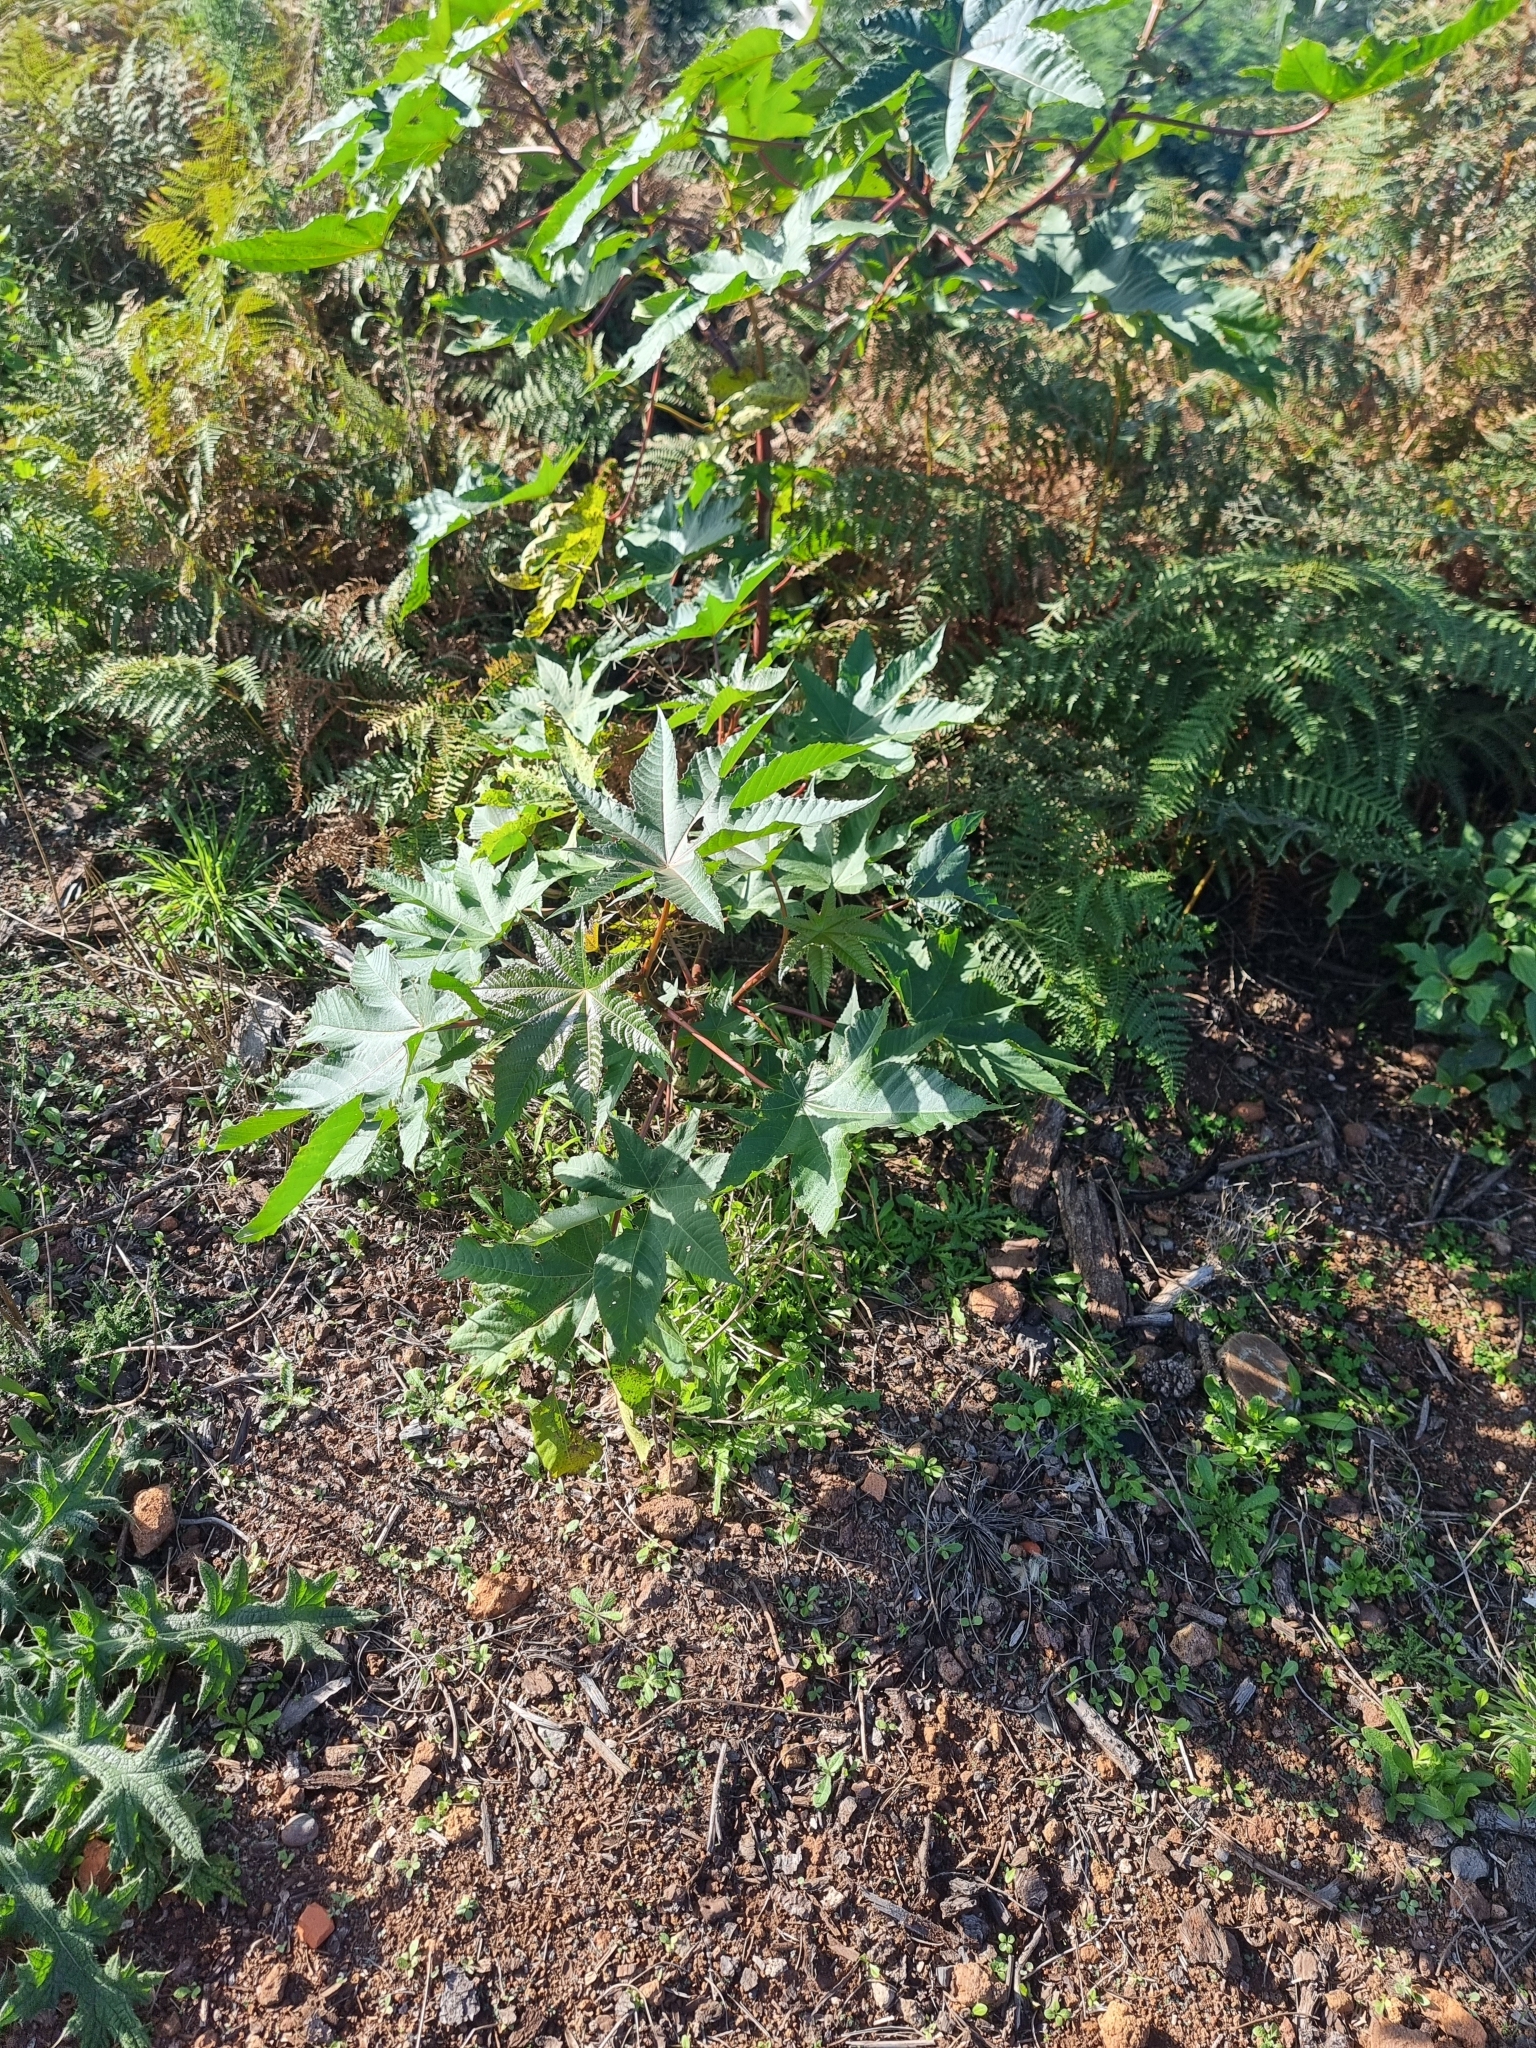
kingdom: Plantae
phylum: Tracheophyta
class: Magnoliopsida
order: Malpighiales
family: Euphorbiaceae
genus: Ricinus
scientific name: Ricinus communis
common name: Castor-oil-plant
